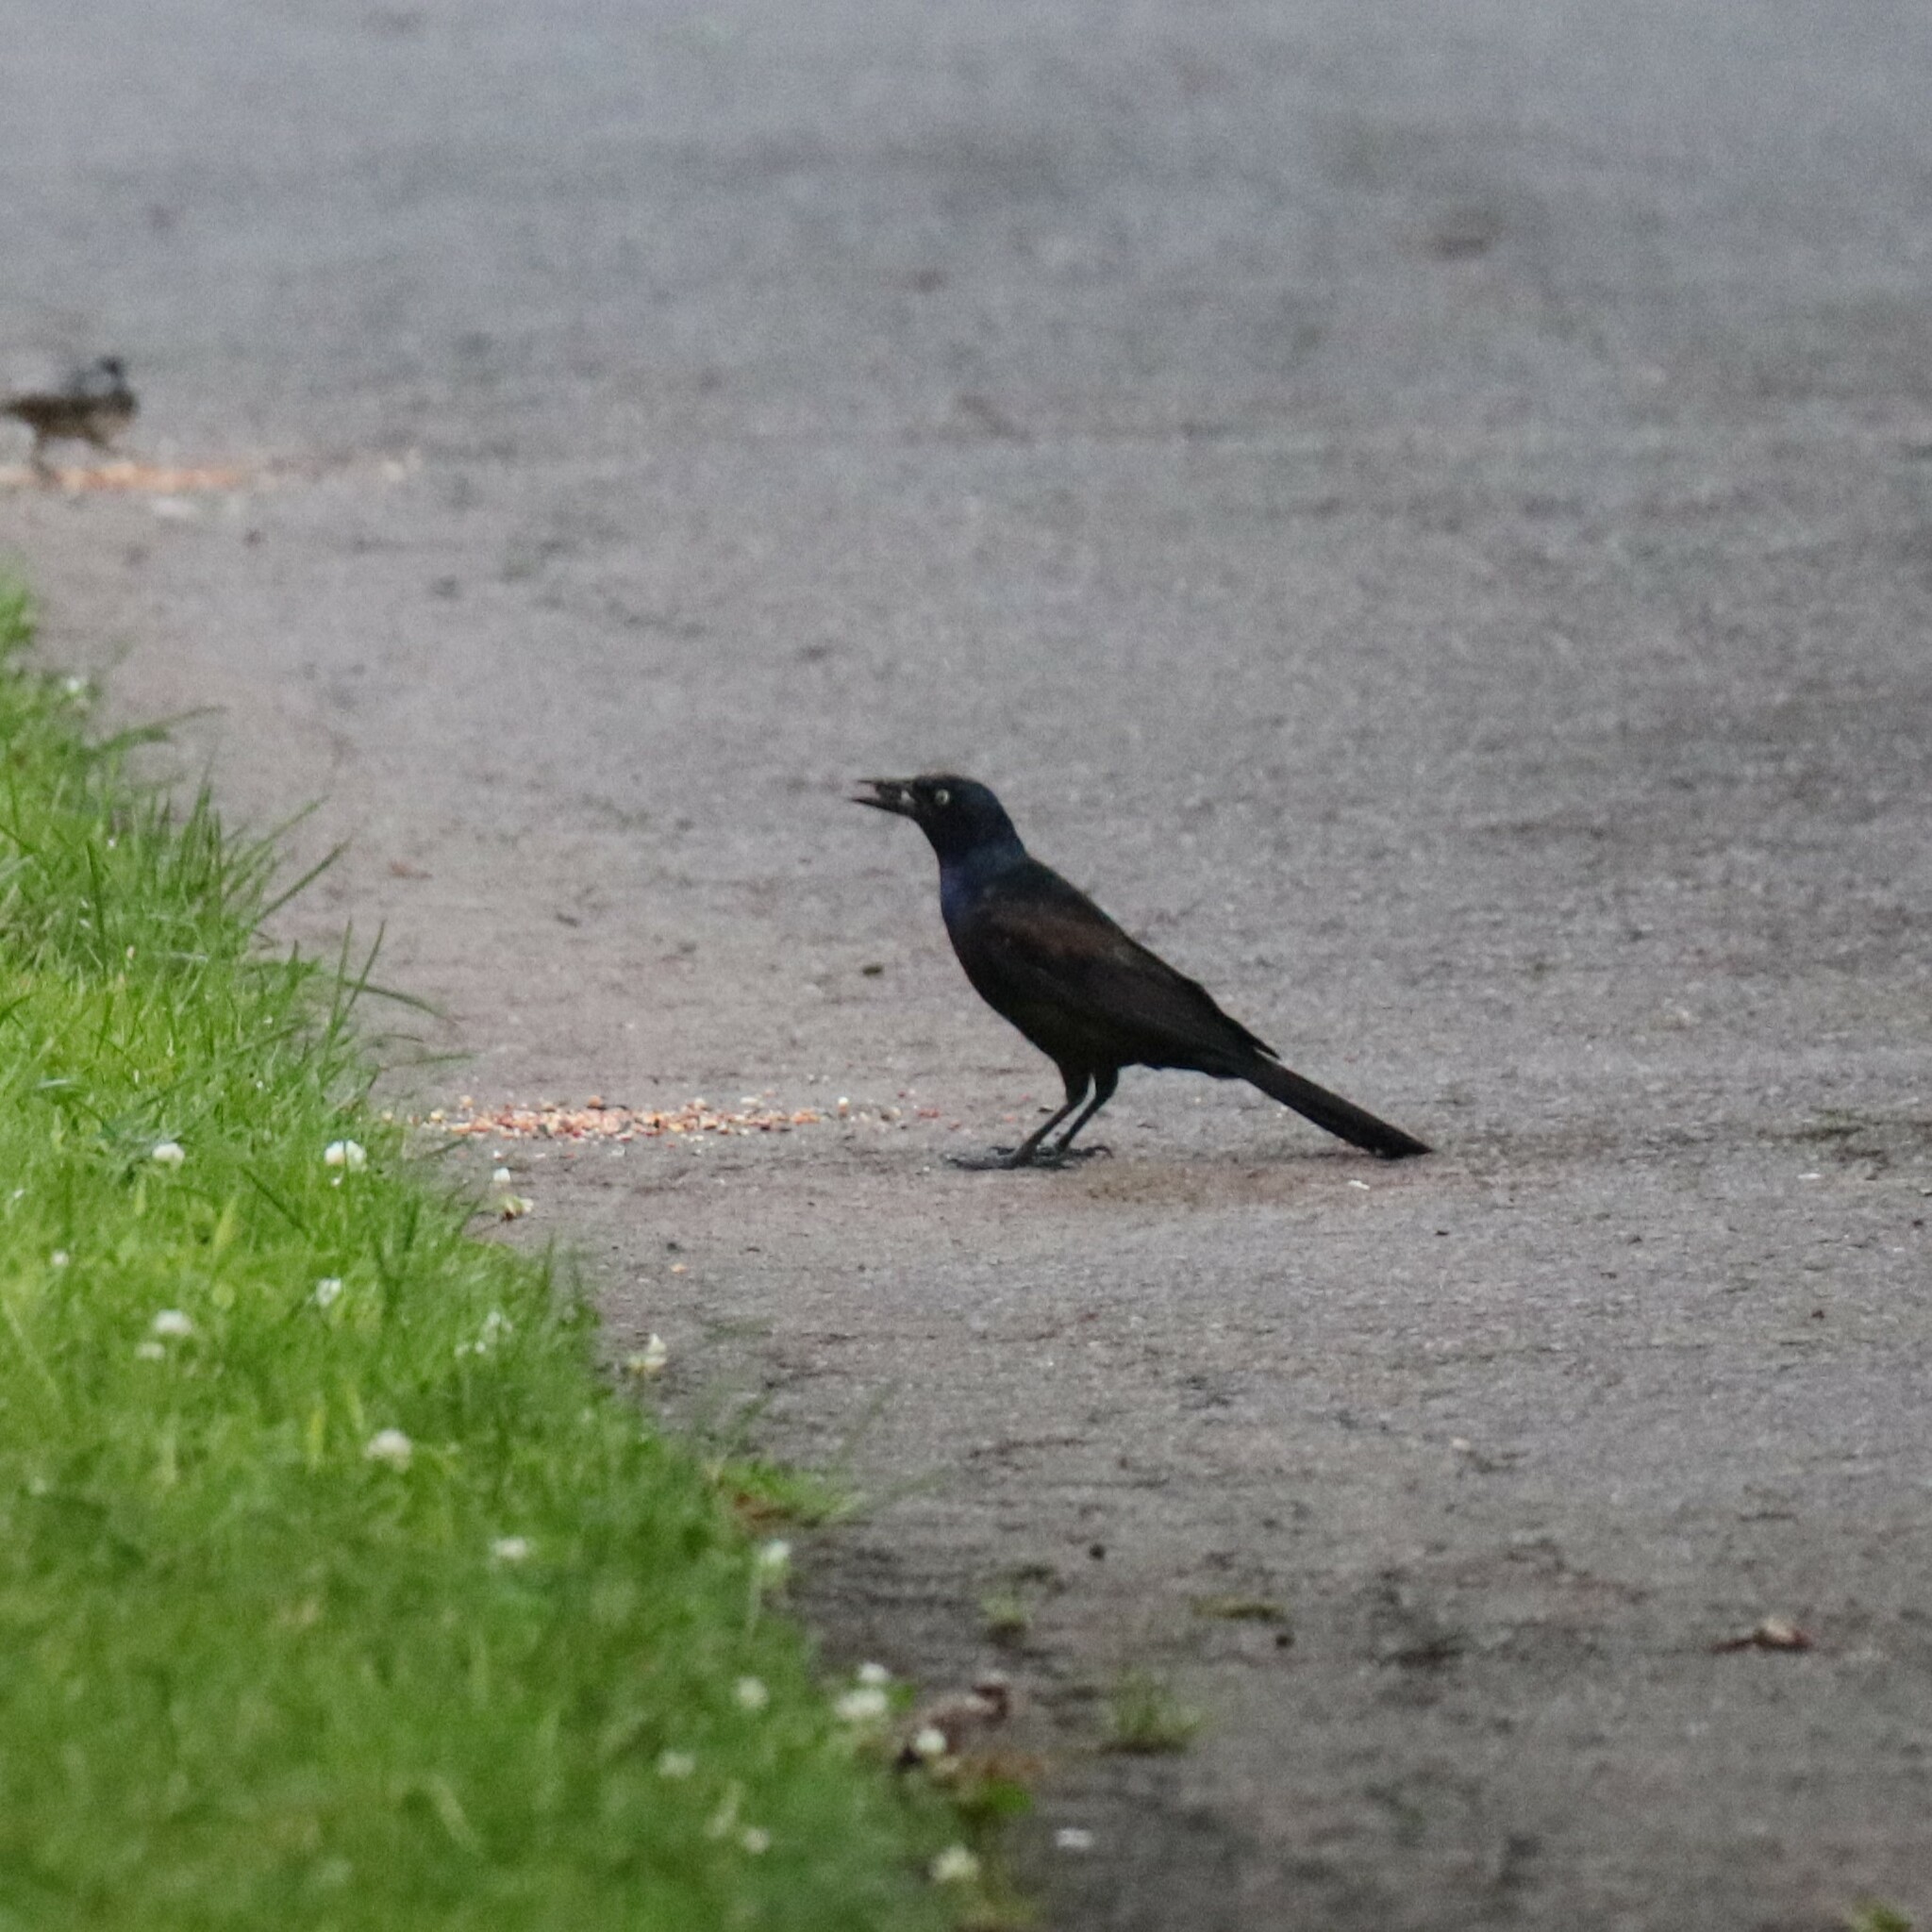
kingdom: Animalia
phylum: Chordata
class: Aves
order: Passeriformes
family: Icteridae
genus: Quiscalus
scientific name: Quiscalus quiscula
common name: Common grackle
